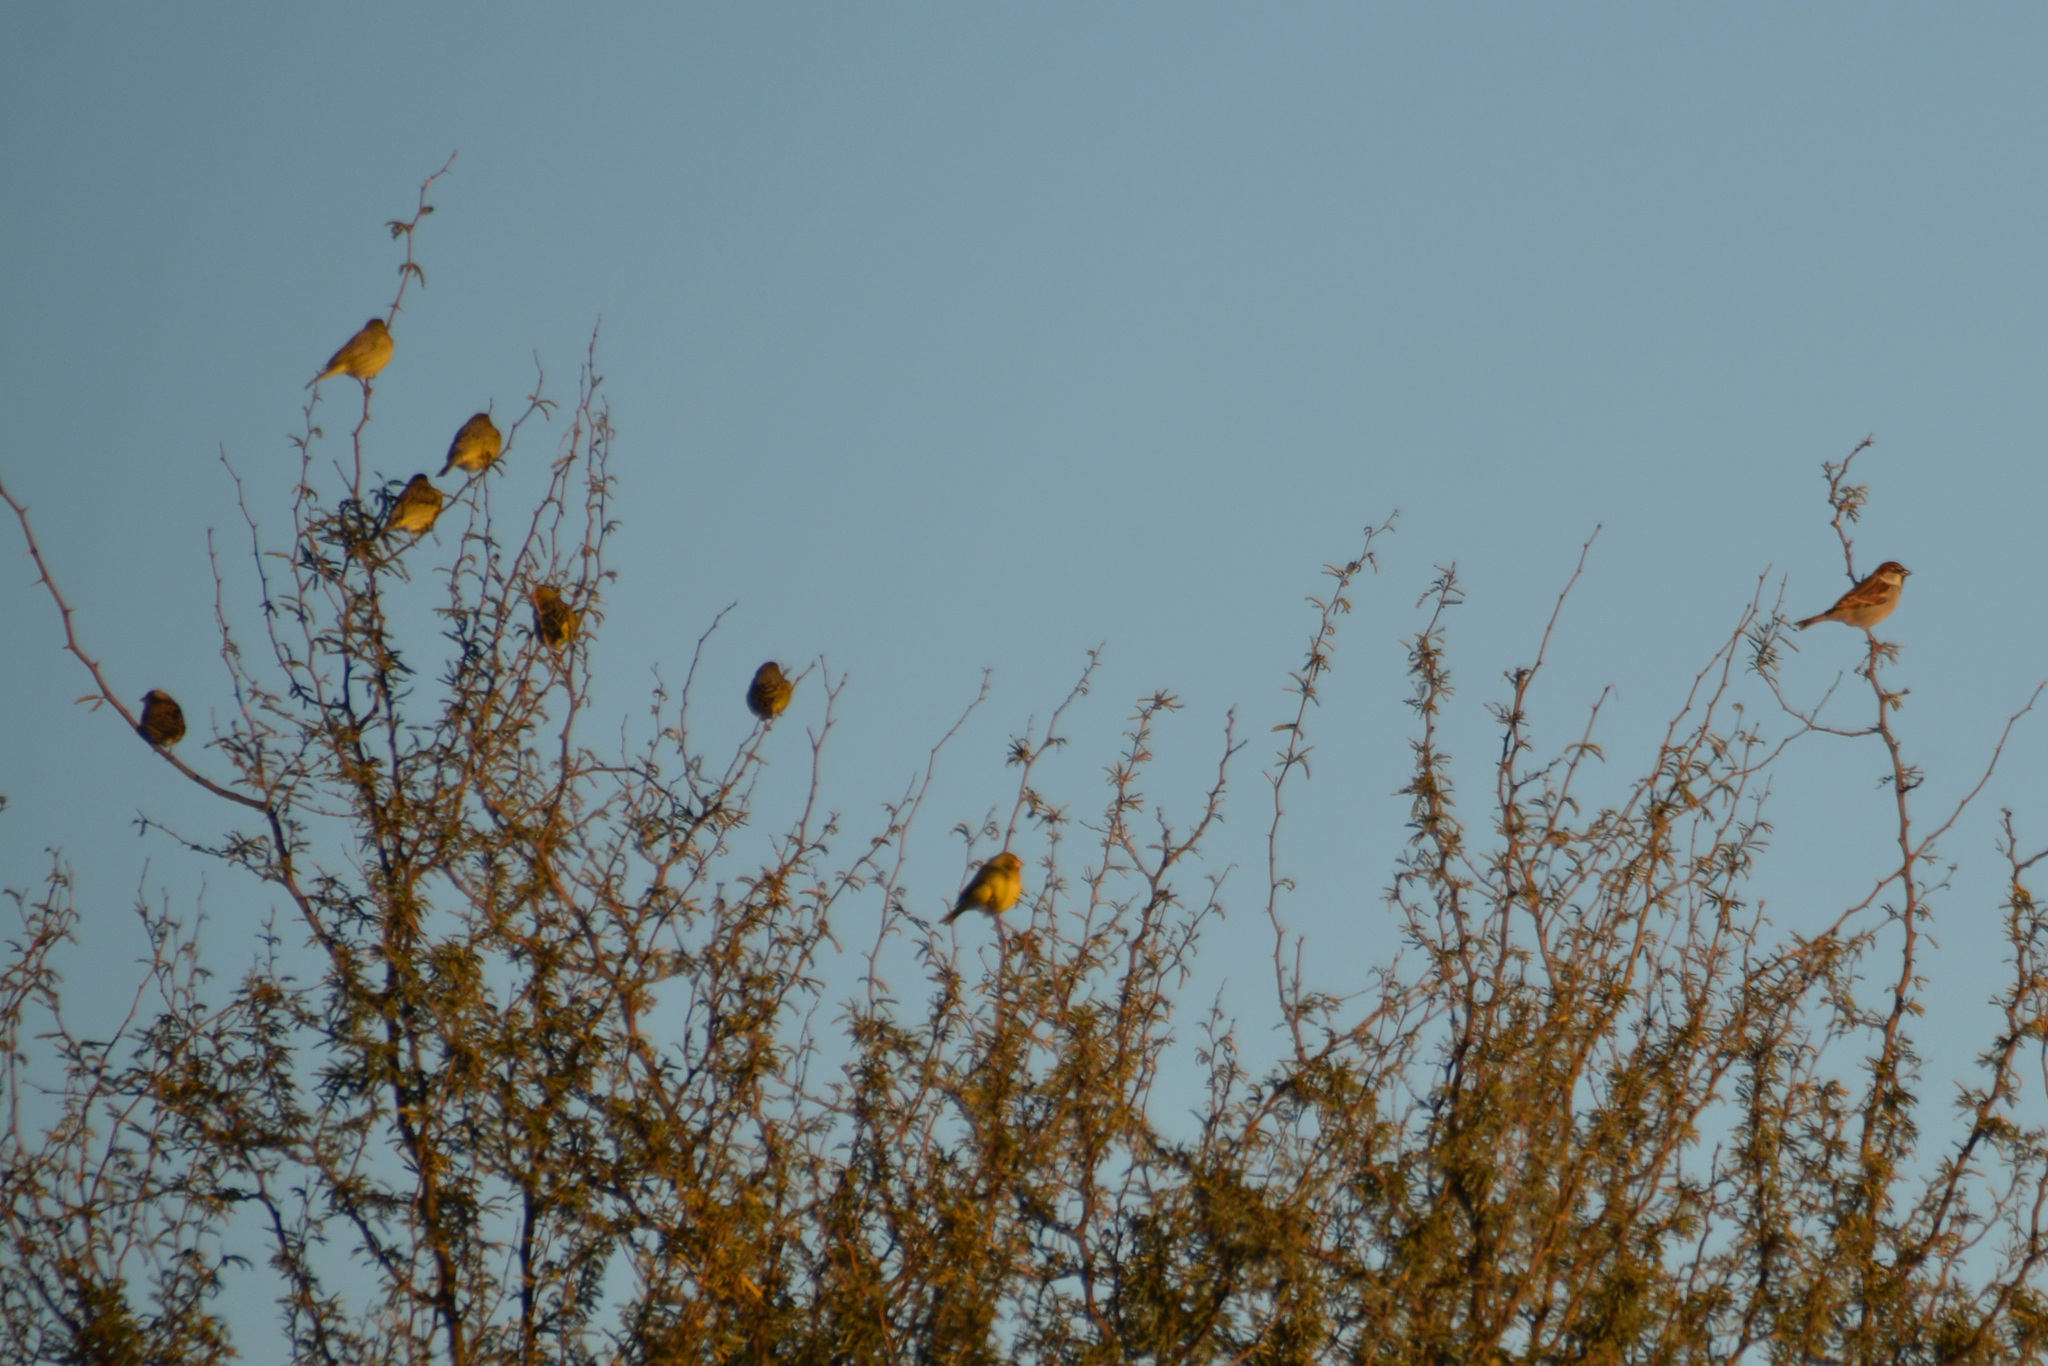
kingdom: Animalia
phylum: Chordata
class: Aves
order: Passeriformes
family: Thraupidae
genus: Sicalis
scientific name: Sicalis flaveola
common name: Saffron finch
